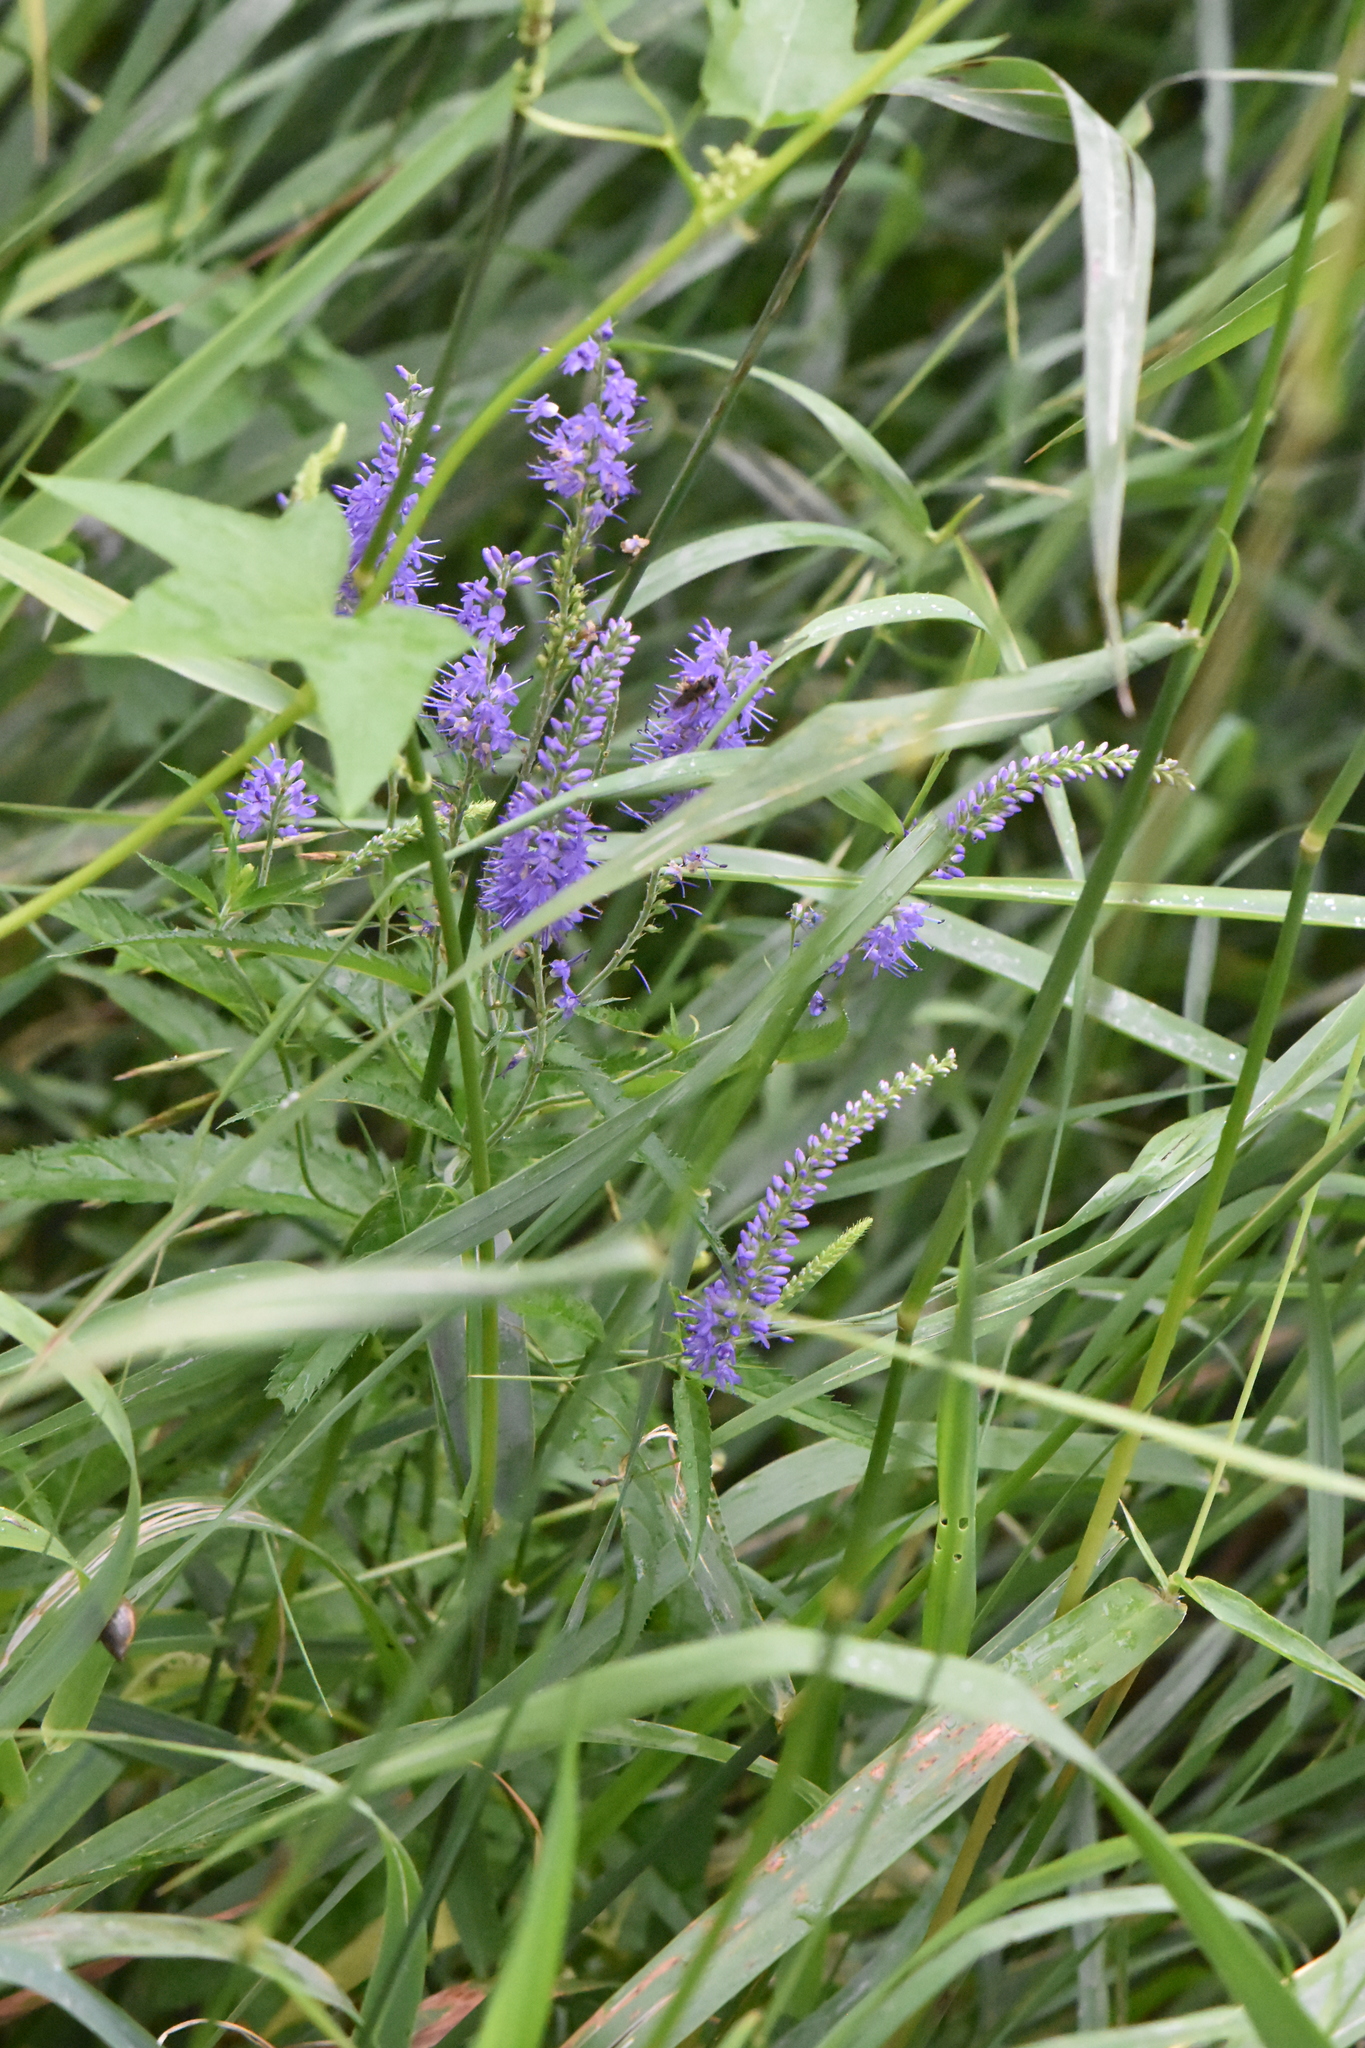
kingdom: Plantae
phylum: Tracheophyta
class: Magnoliopsida
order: Lamiales
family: Plantaginaceae
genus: Veronica
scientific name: Veronica longifolia
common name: Garden speedwell
